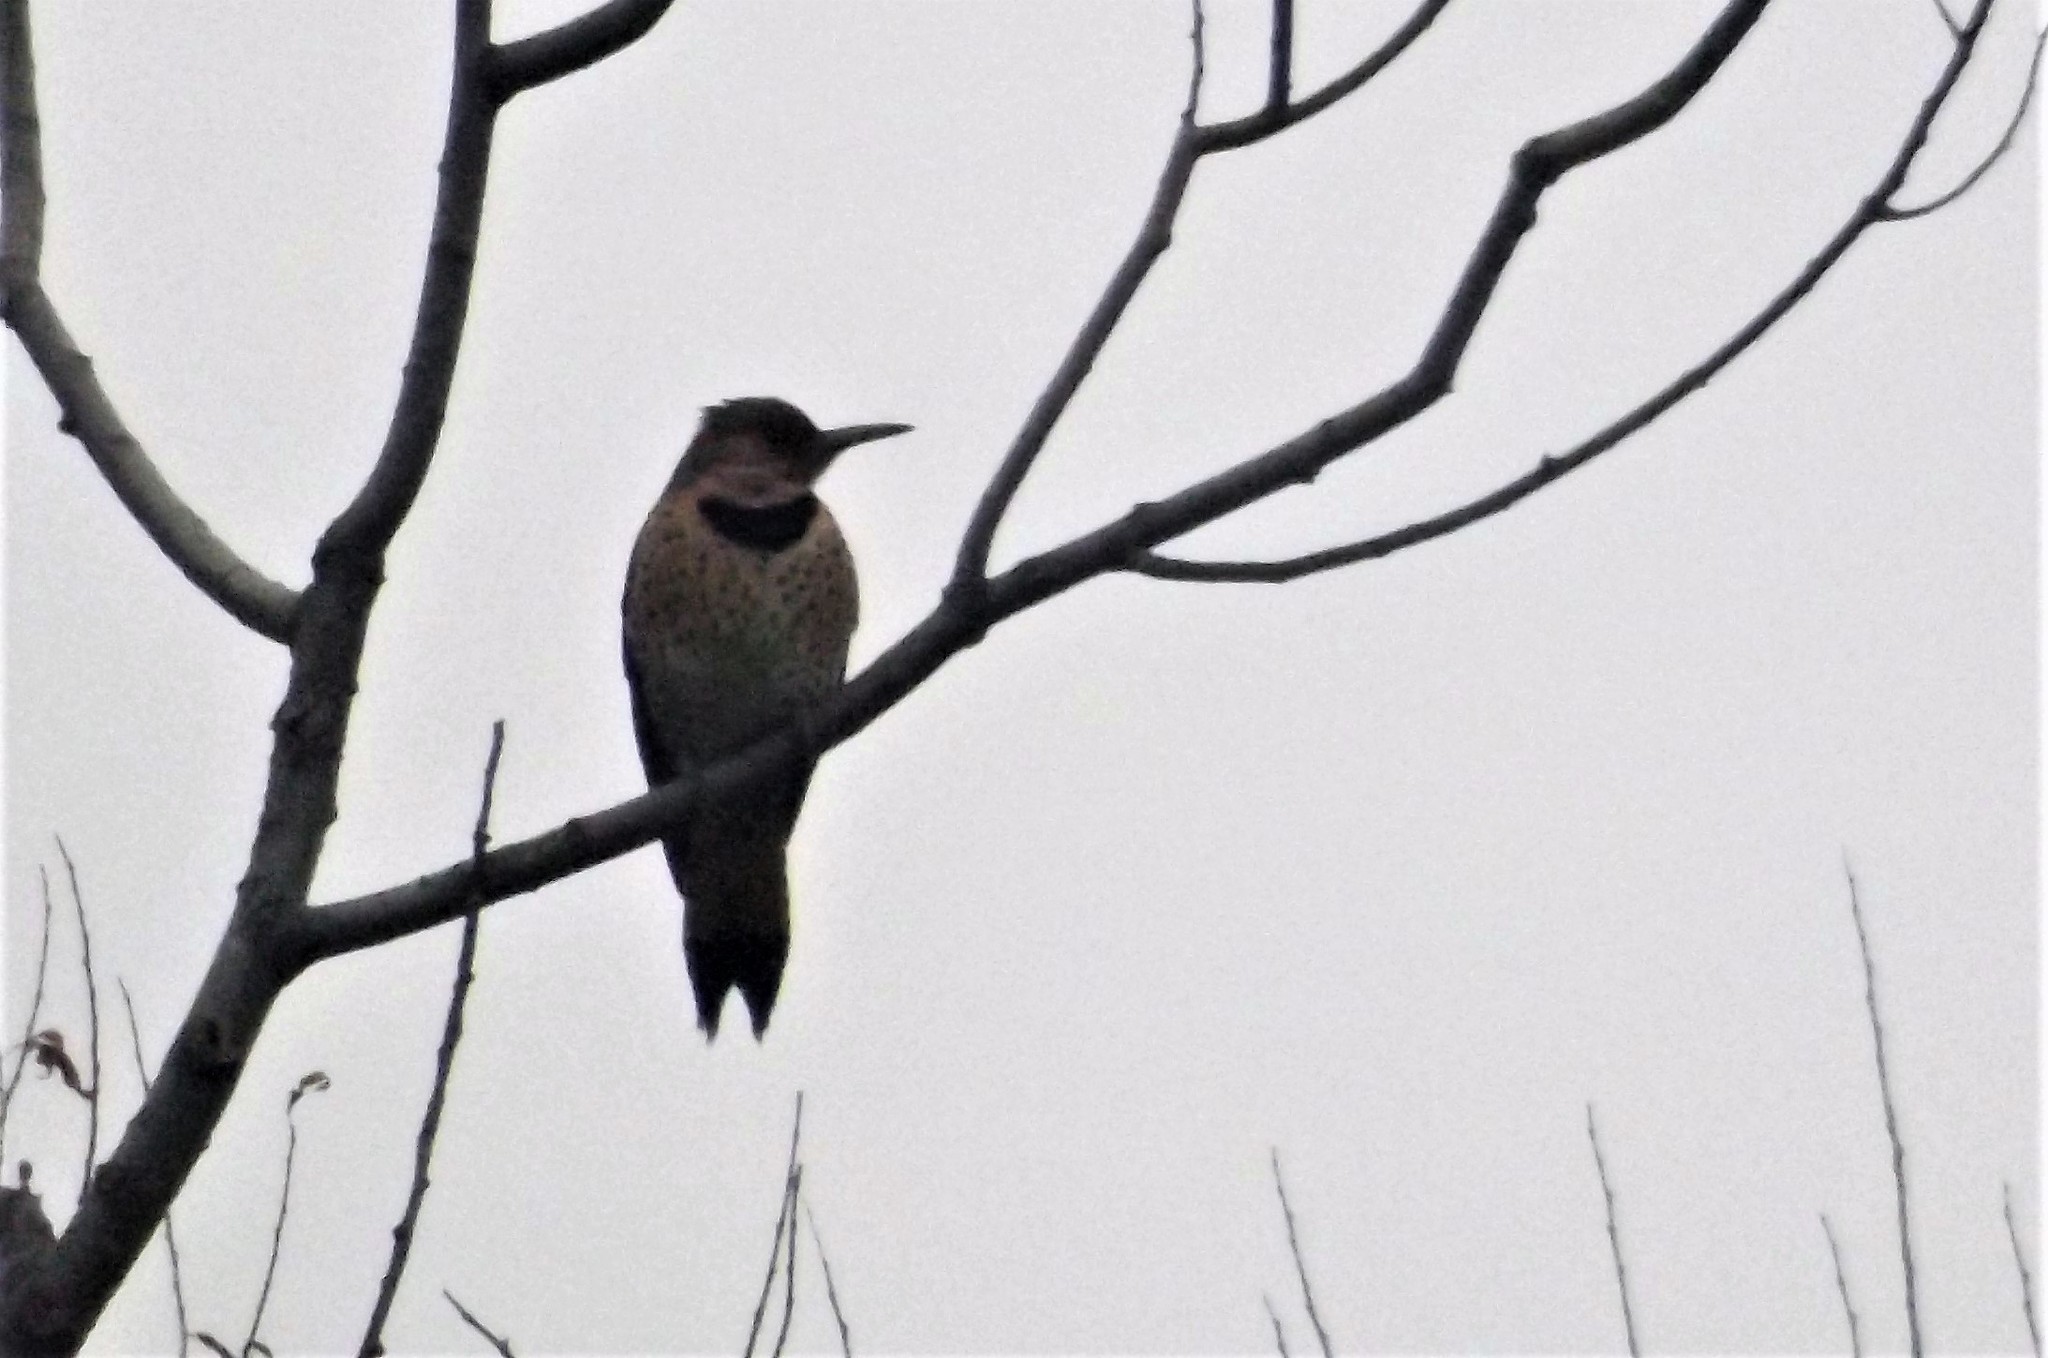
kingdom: Animalia
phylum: Chordata
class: Aves
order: Piciformes
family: Picidae
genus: Colaptes
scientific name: Colaptes auratus
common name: Northern flicker
